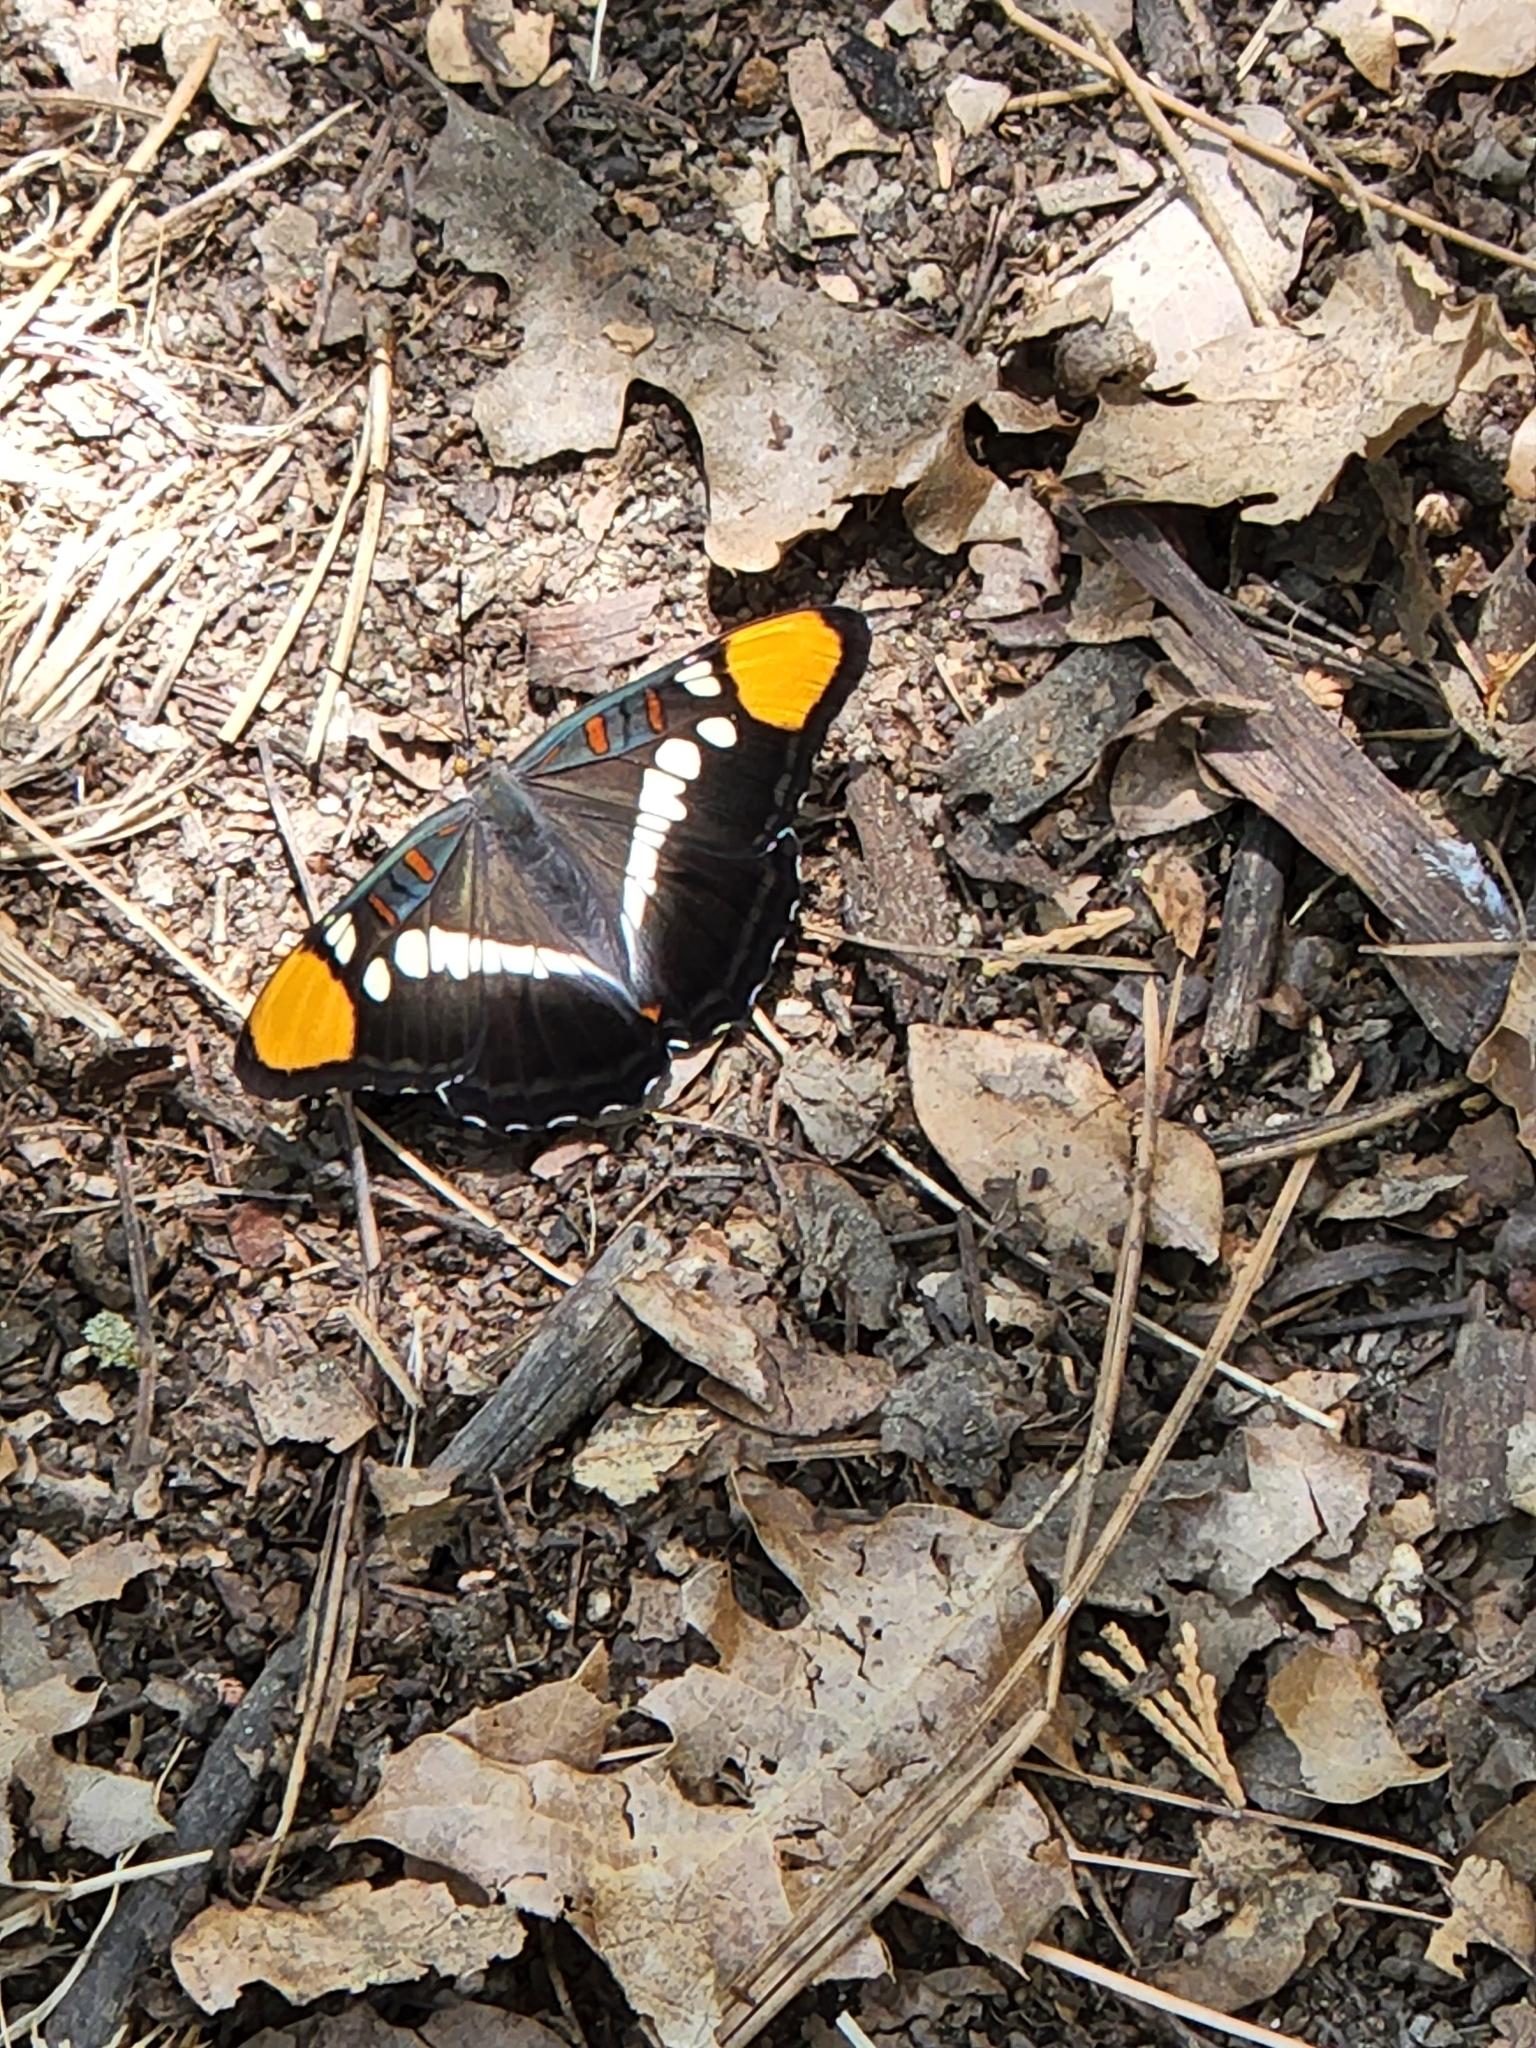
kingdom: Animalia
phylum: Arthropoda
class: Insecta
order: Lepidoptera
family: Nymphalidae
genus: Limenitis
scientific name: Limenitis bredowii
